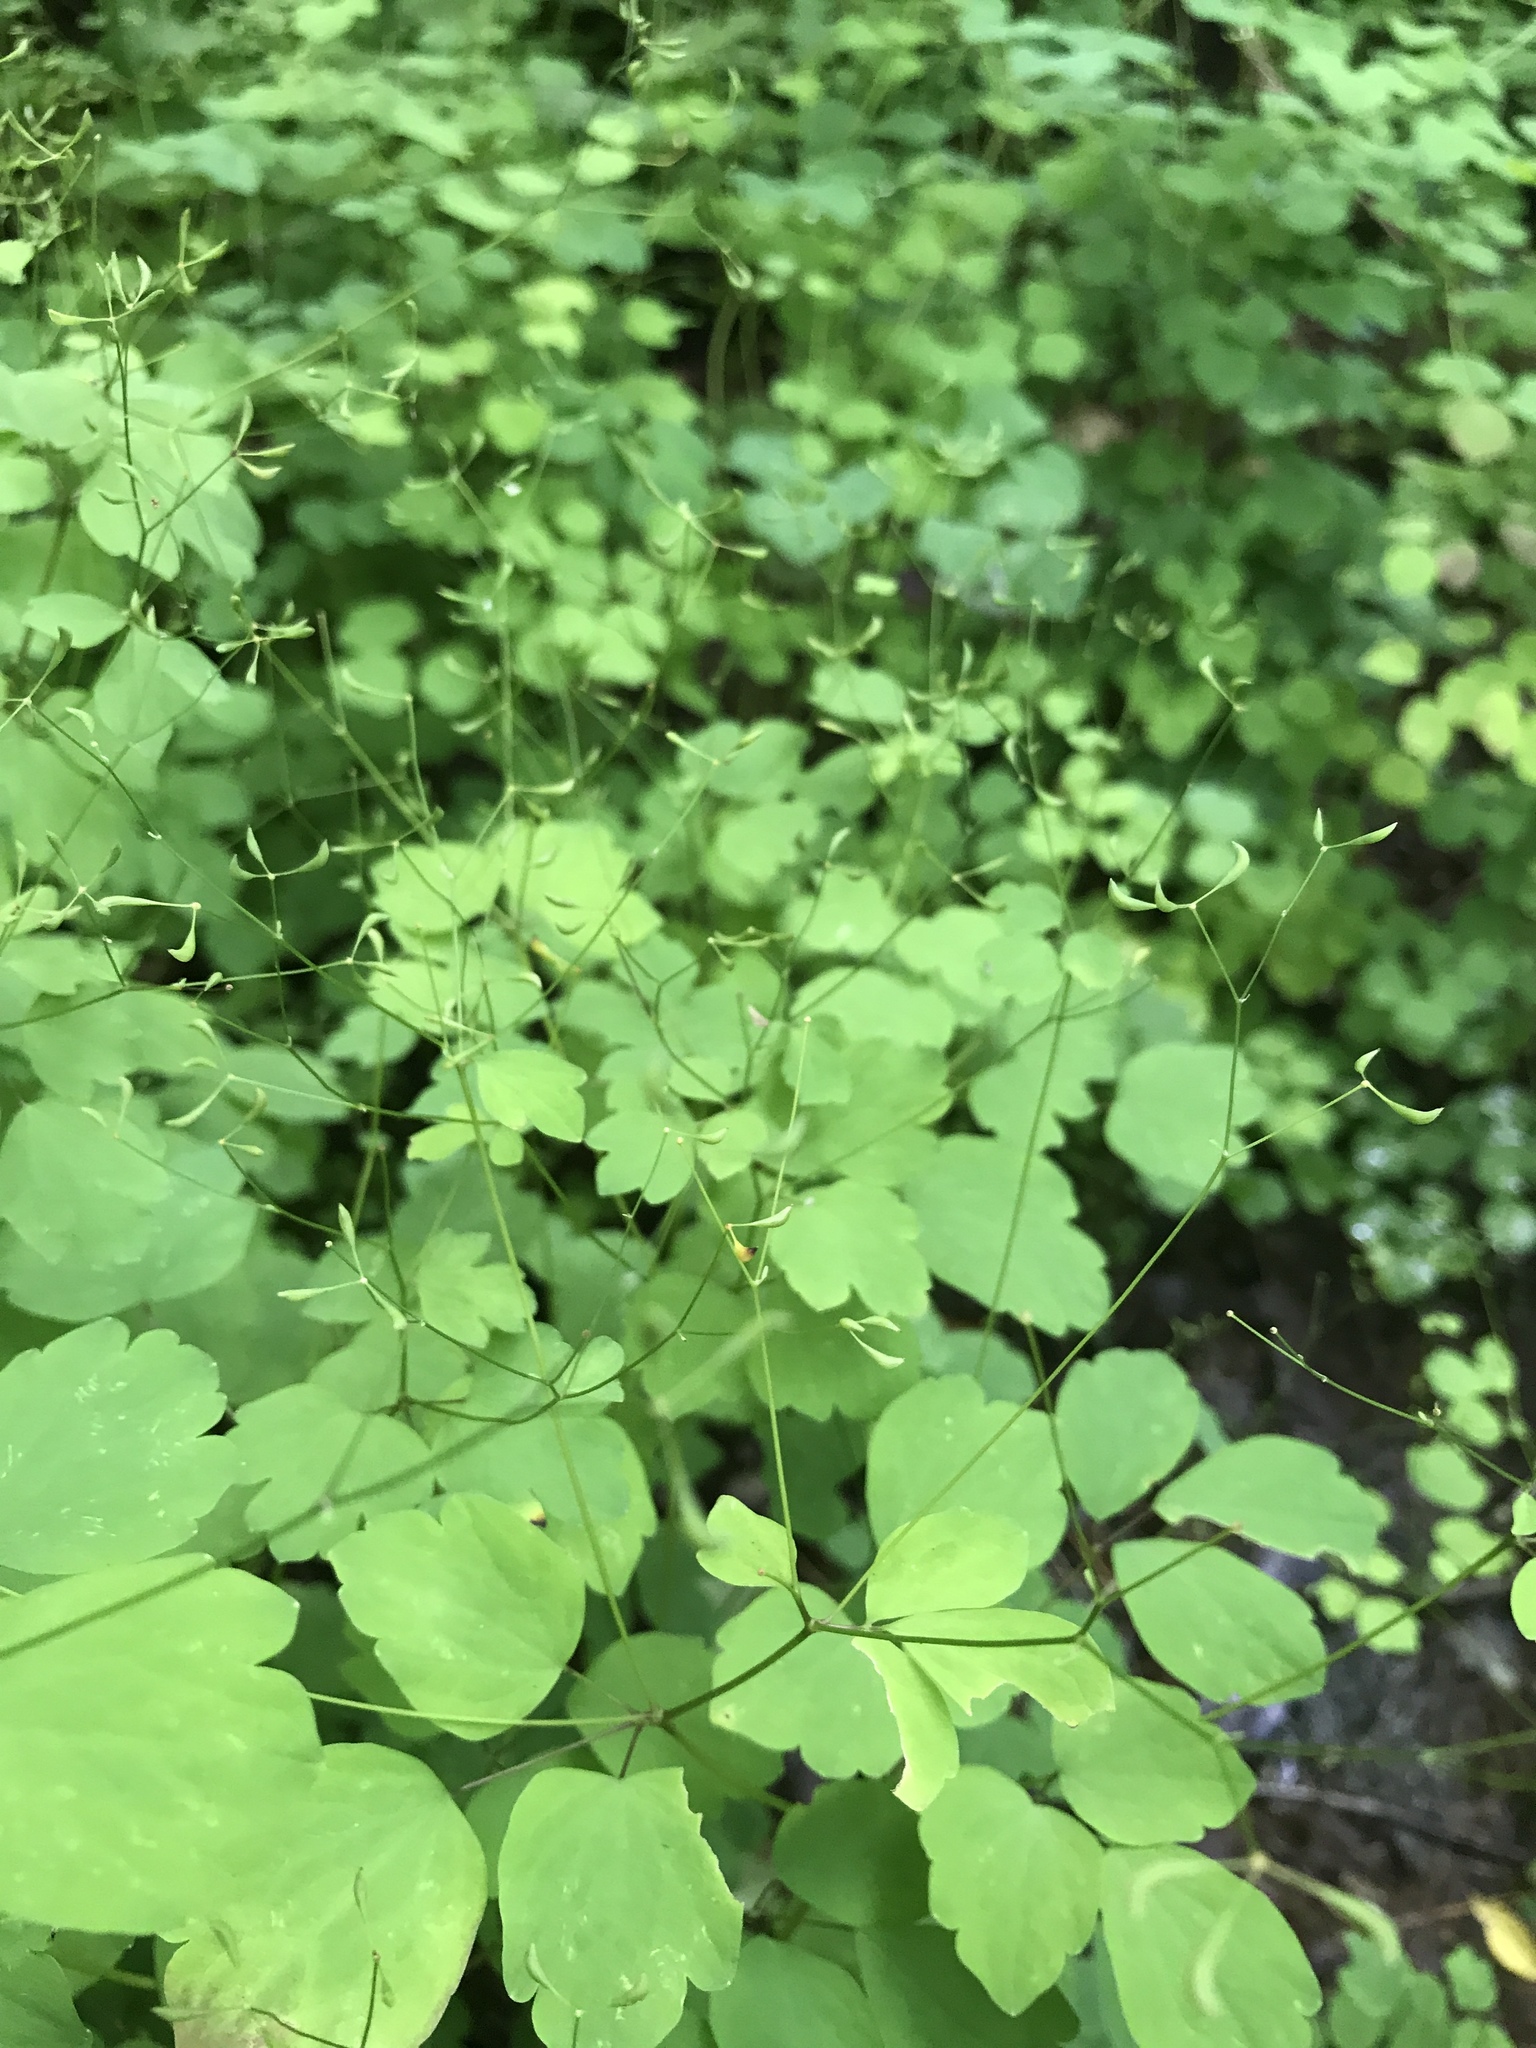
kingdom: Plantae
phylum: Tracheophyta
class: Magnoliopsida
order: Ranunculales
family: Ranunculaceae
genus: Thalictrum
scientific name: Thalictrum clavatum
